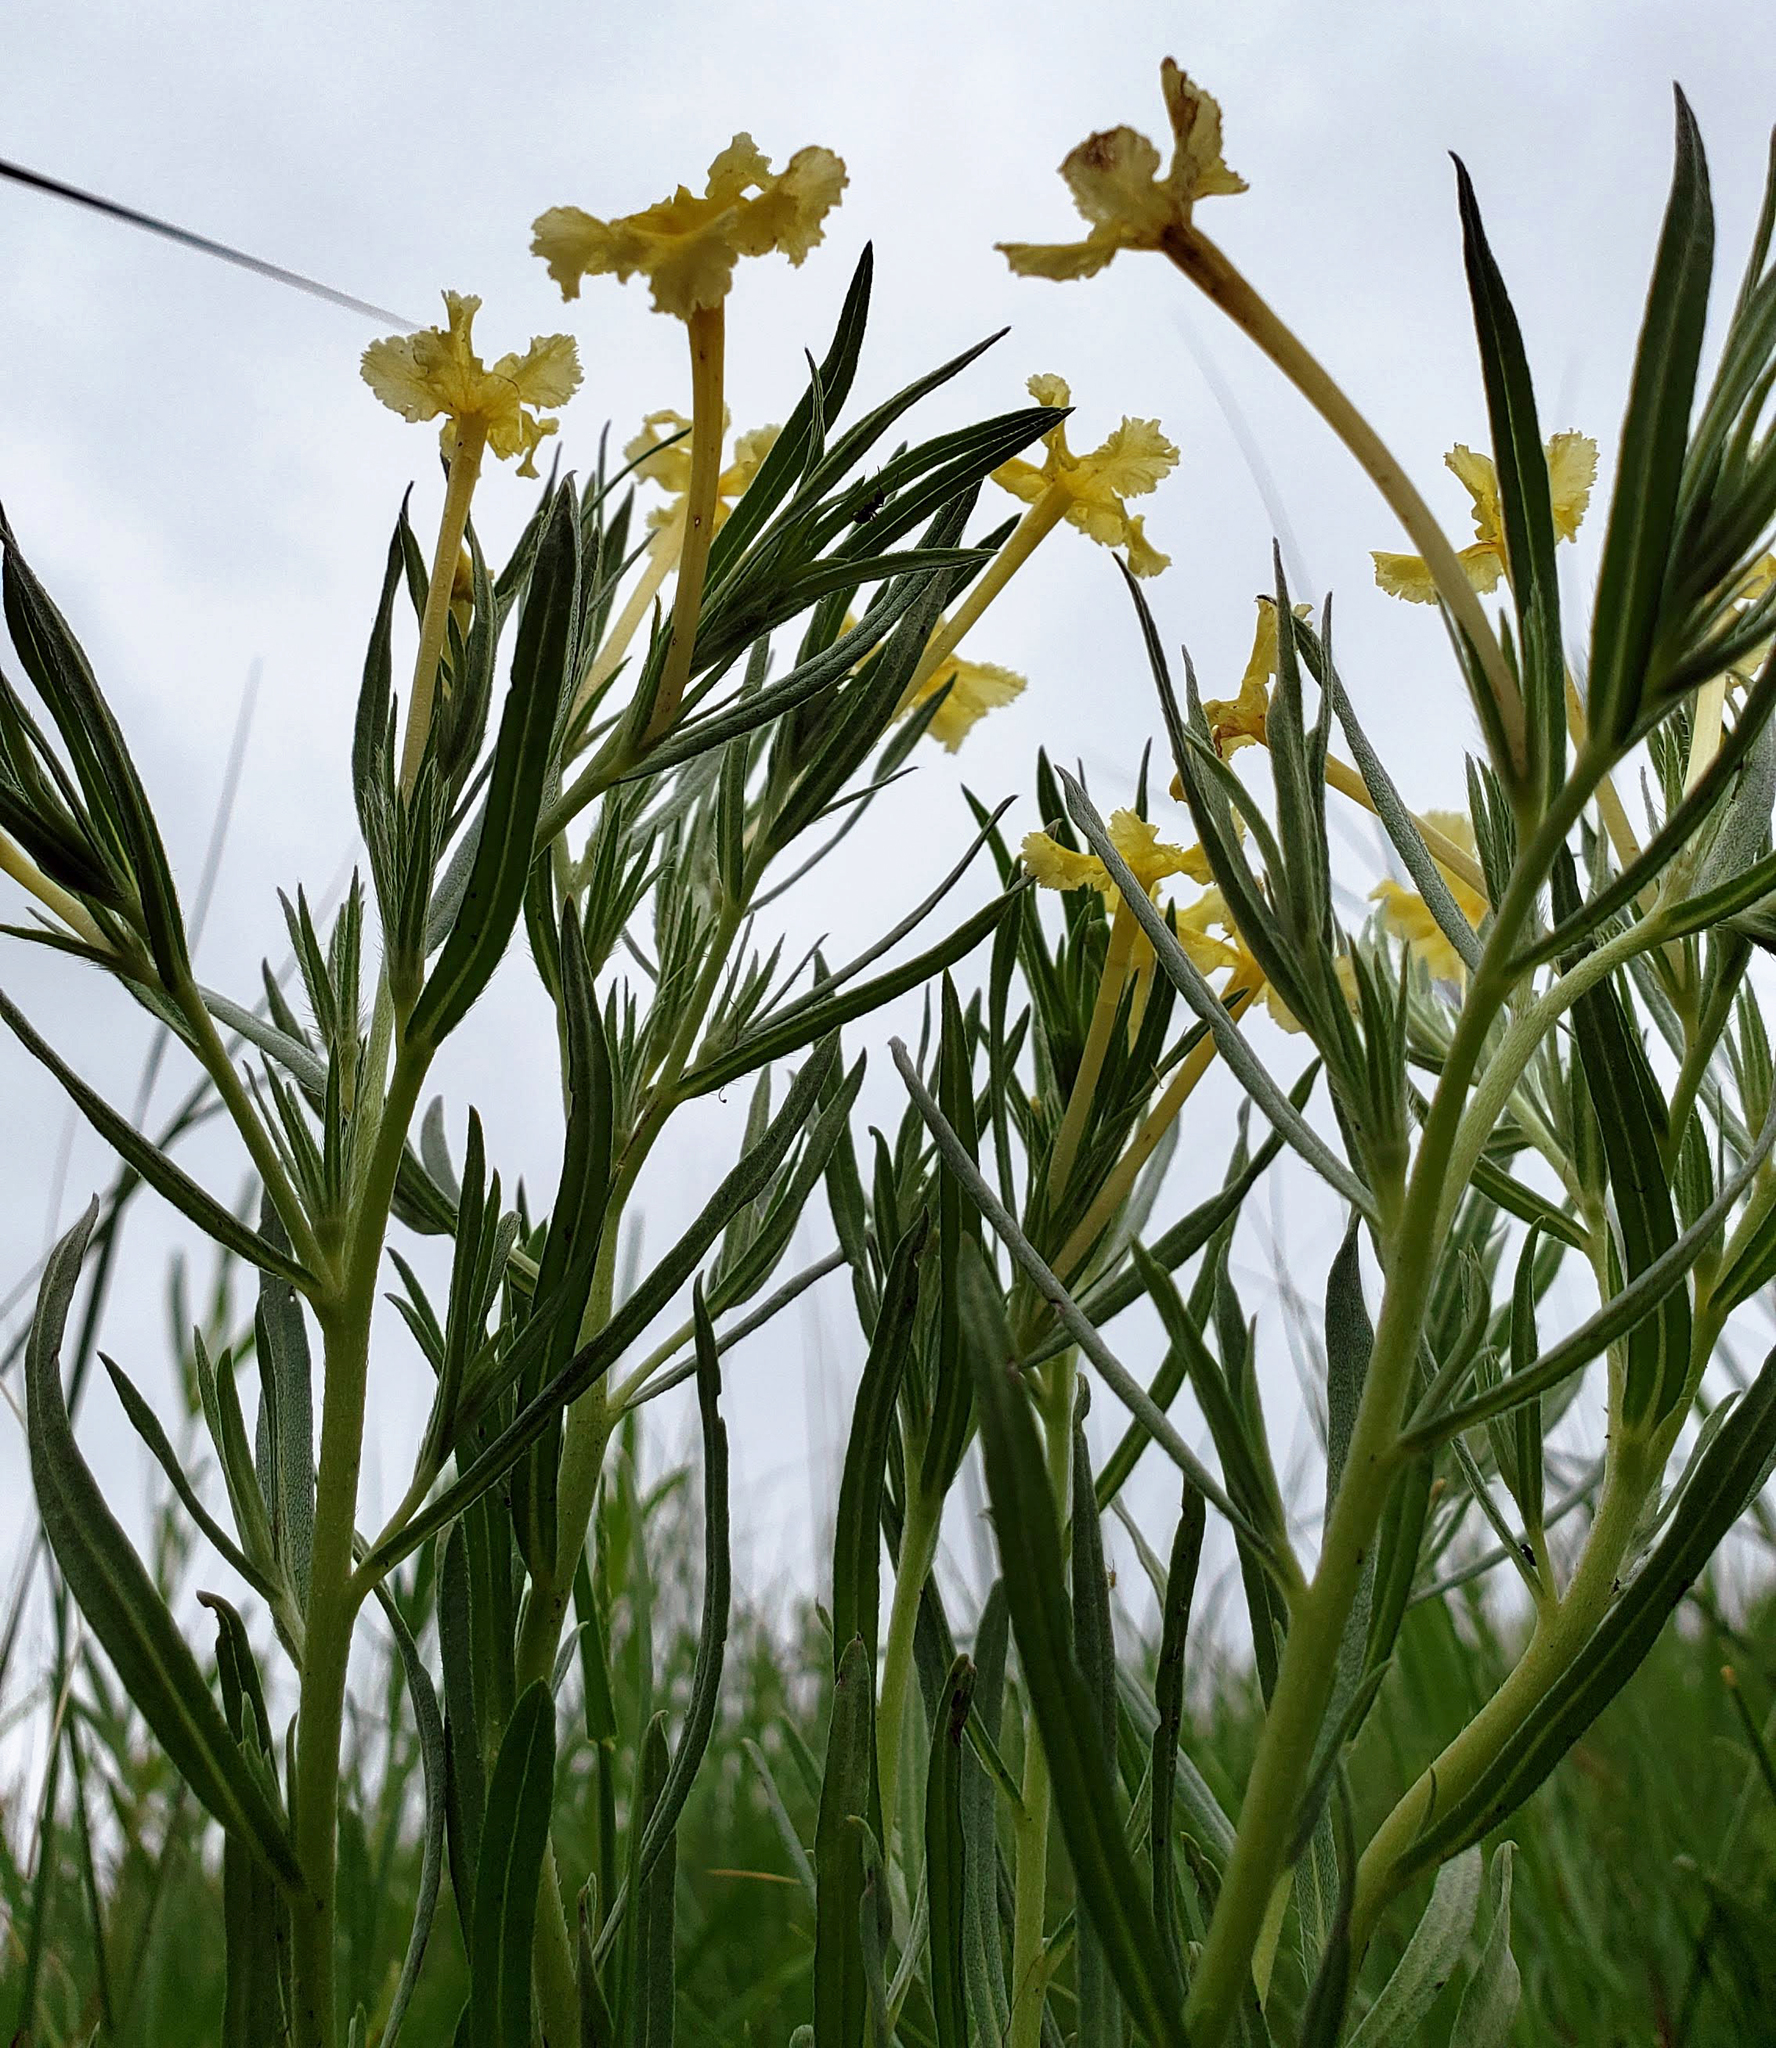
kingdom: Plantae
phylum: Tracheophyta
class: Magnoliopsida
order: Boraginales
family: Boraginaceae
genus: Lithospermum
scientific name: Lithospermum incisum
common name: Fringed gromwell
